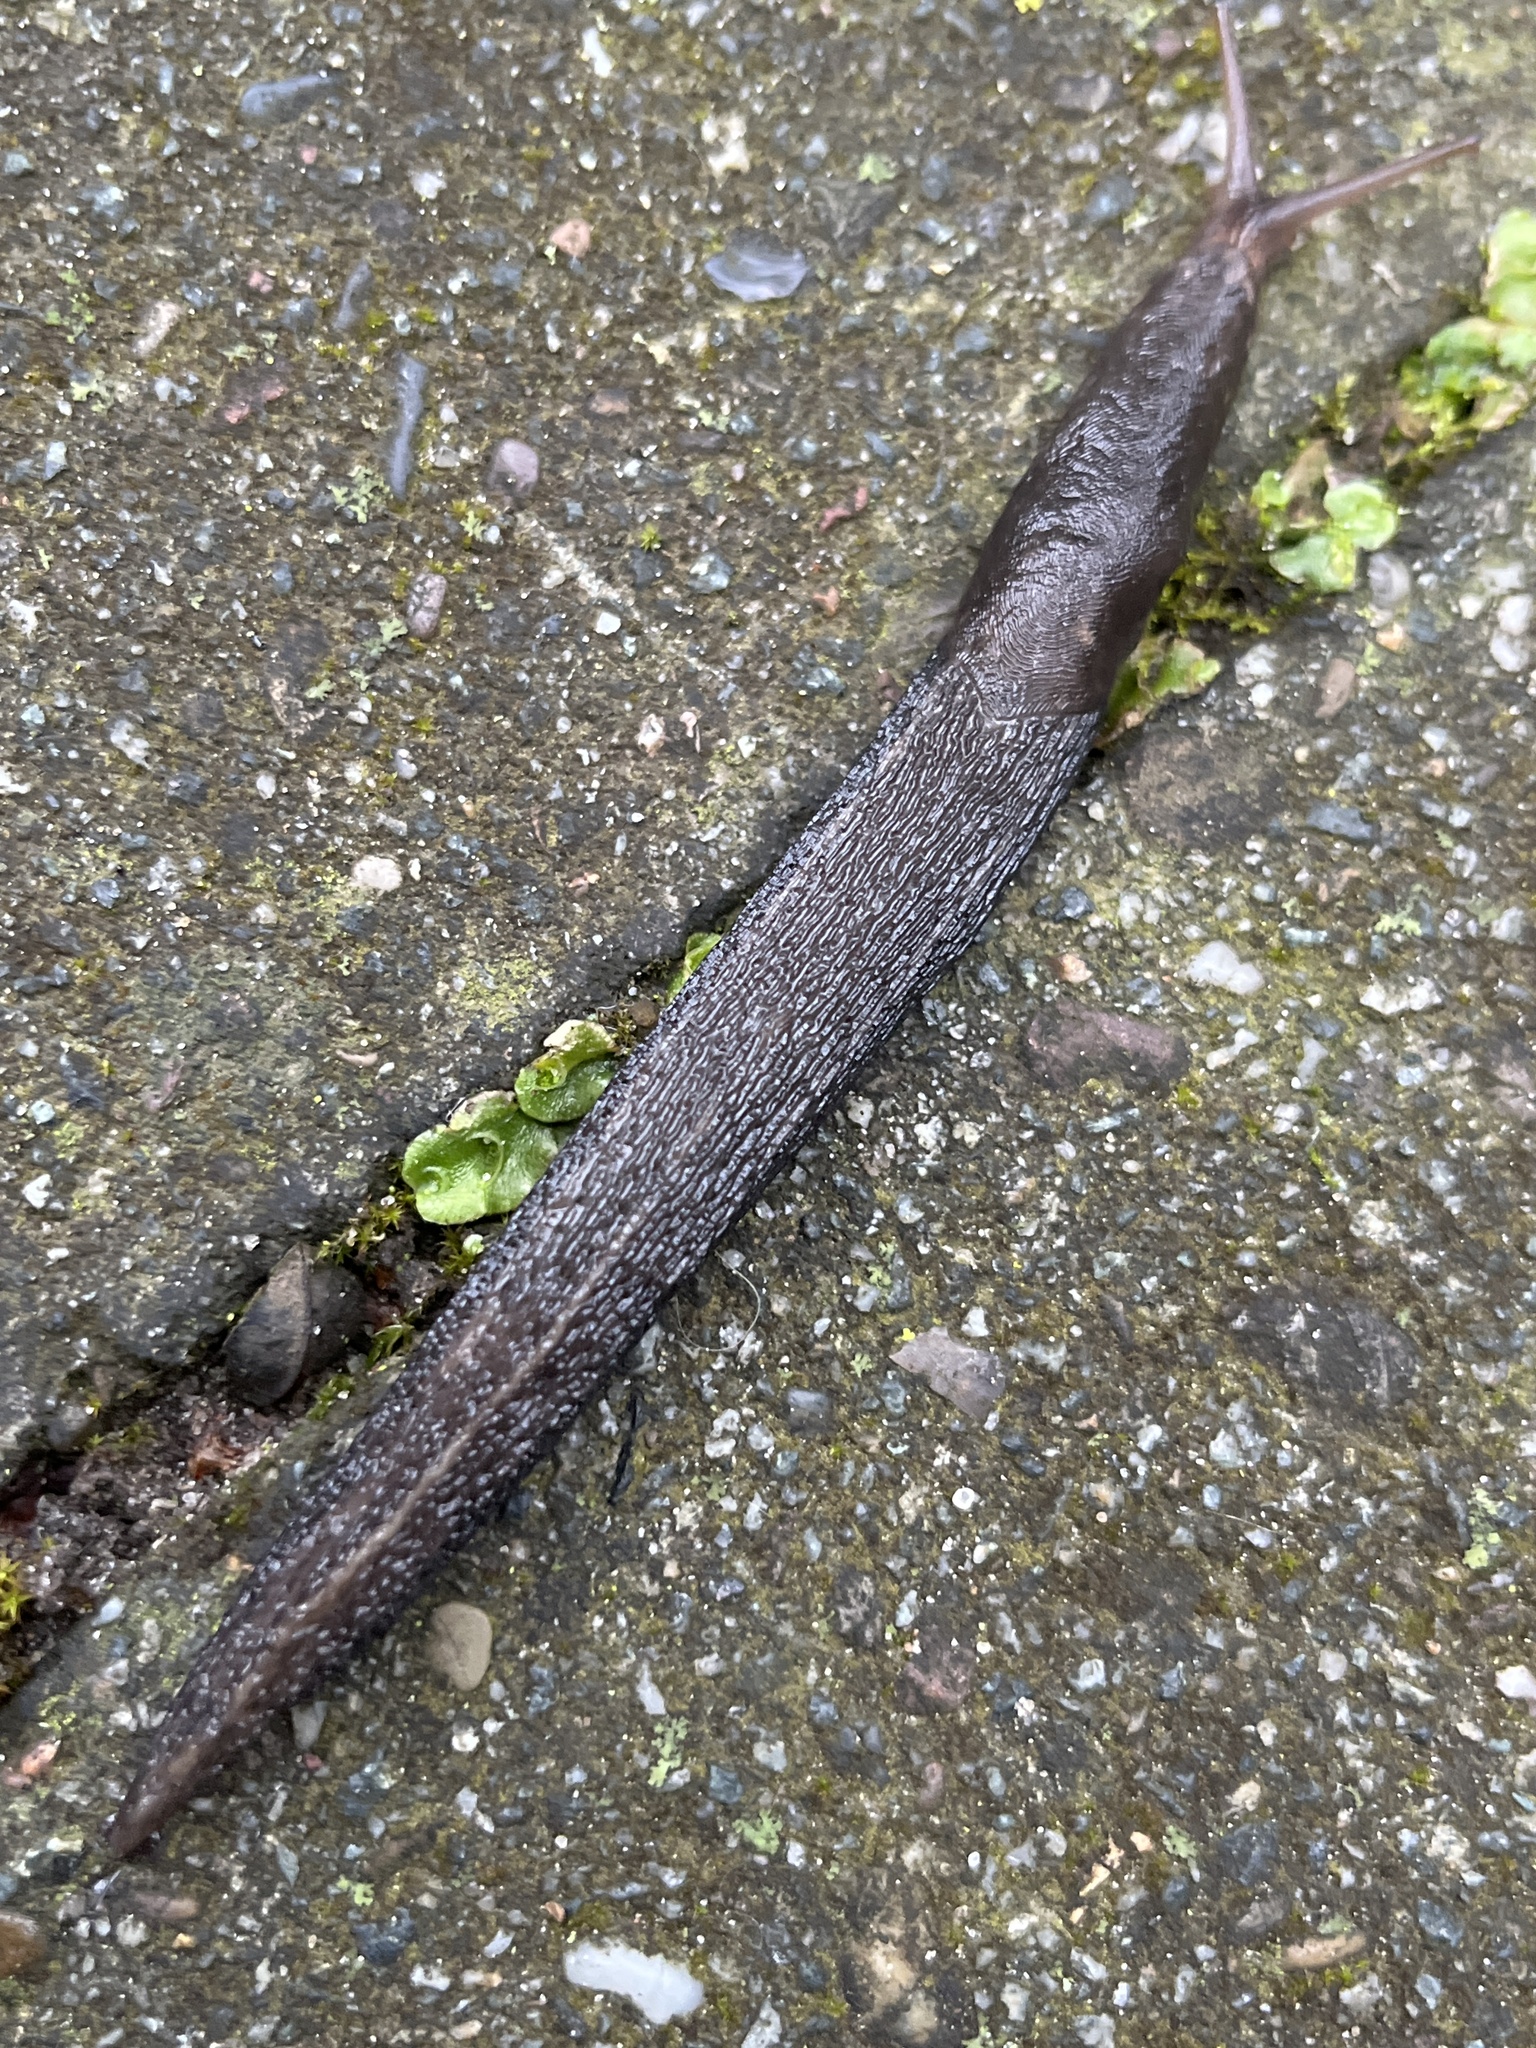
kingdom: Animalia
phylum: Mollusca
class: Gastropoda
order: Stylommatophora
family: Limacidae
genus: Limax
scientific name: Limax maximus
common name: Great grey slug
